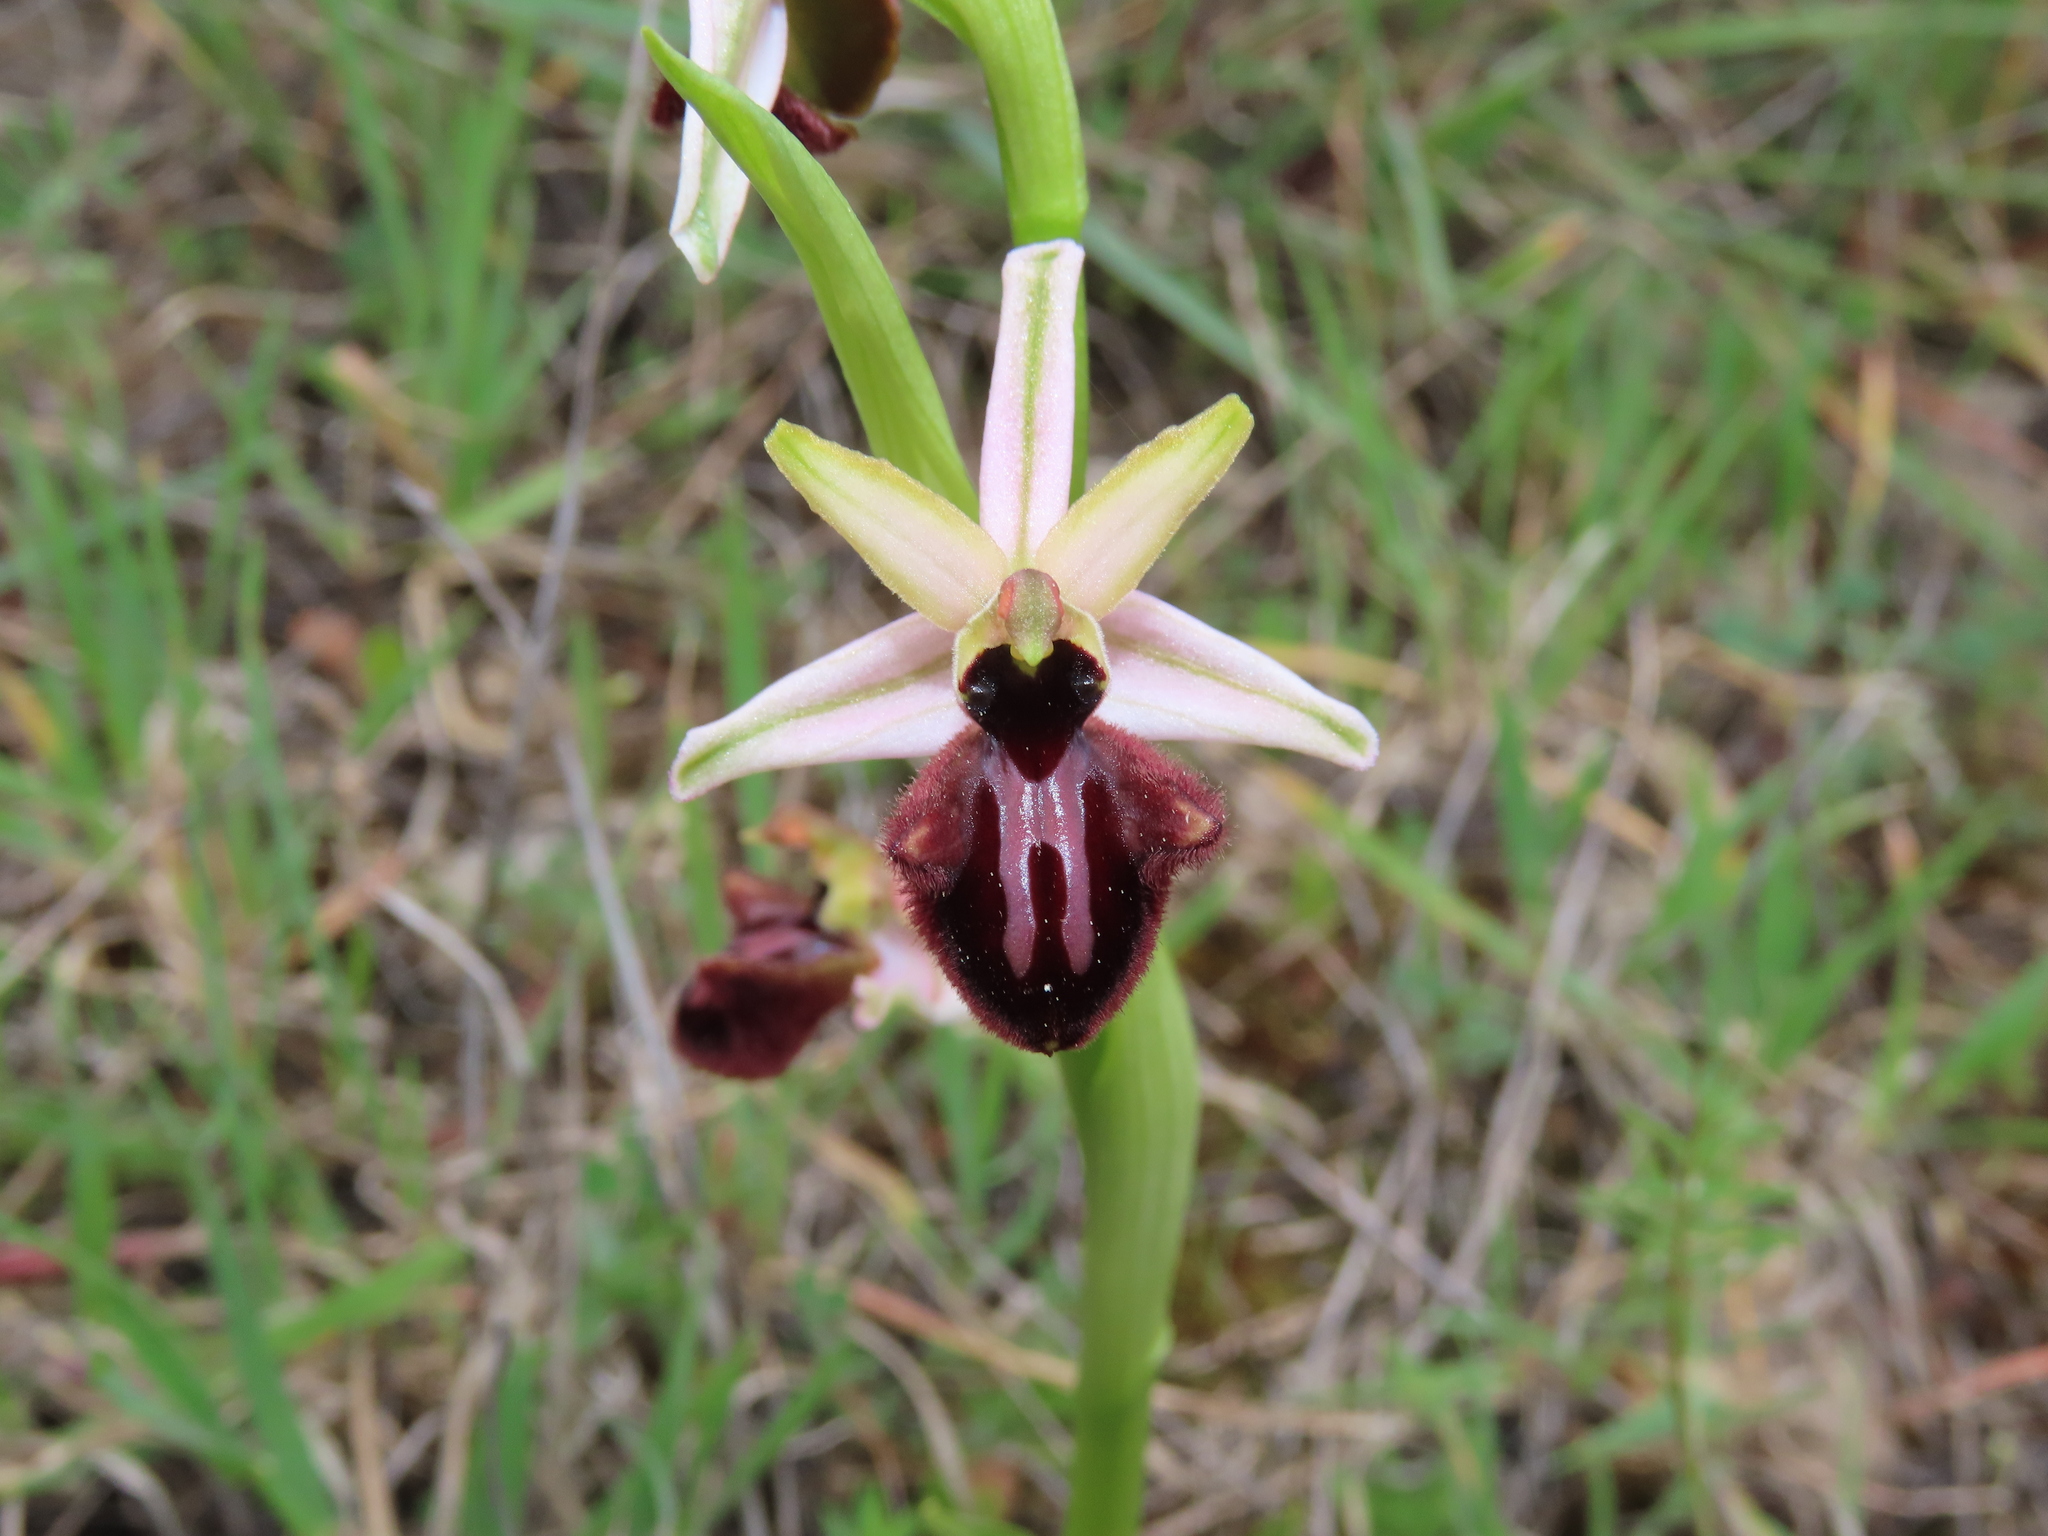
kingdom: Plantae
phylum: Tracheophyta
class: Liliopsida
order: Asparagales
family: Orchidaceae
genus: Ophrys
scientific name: Ophrys sphegodes
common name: Early spider-orchid
